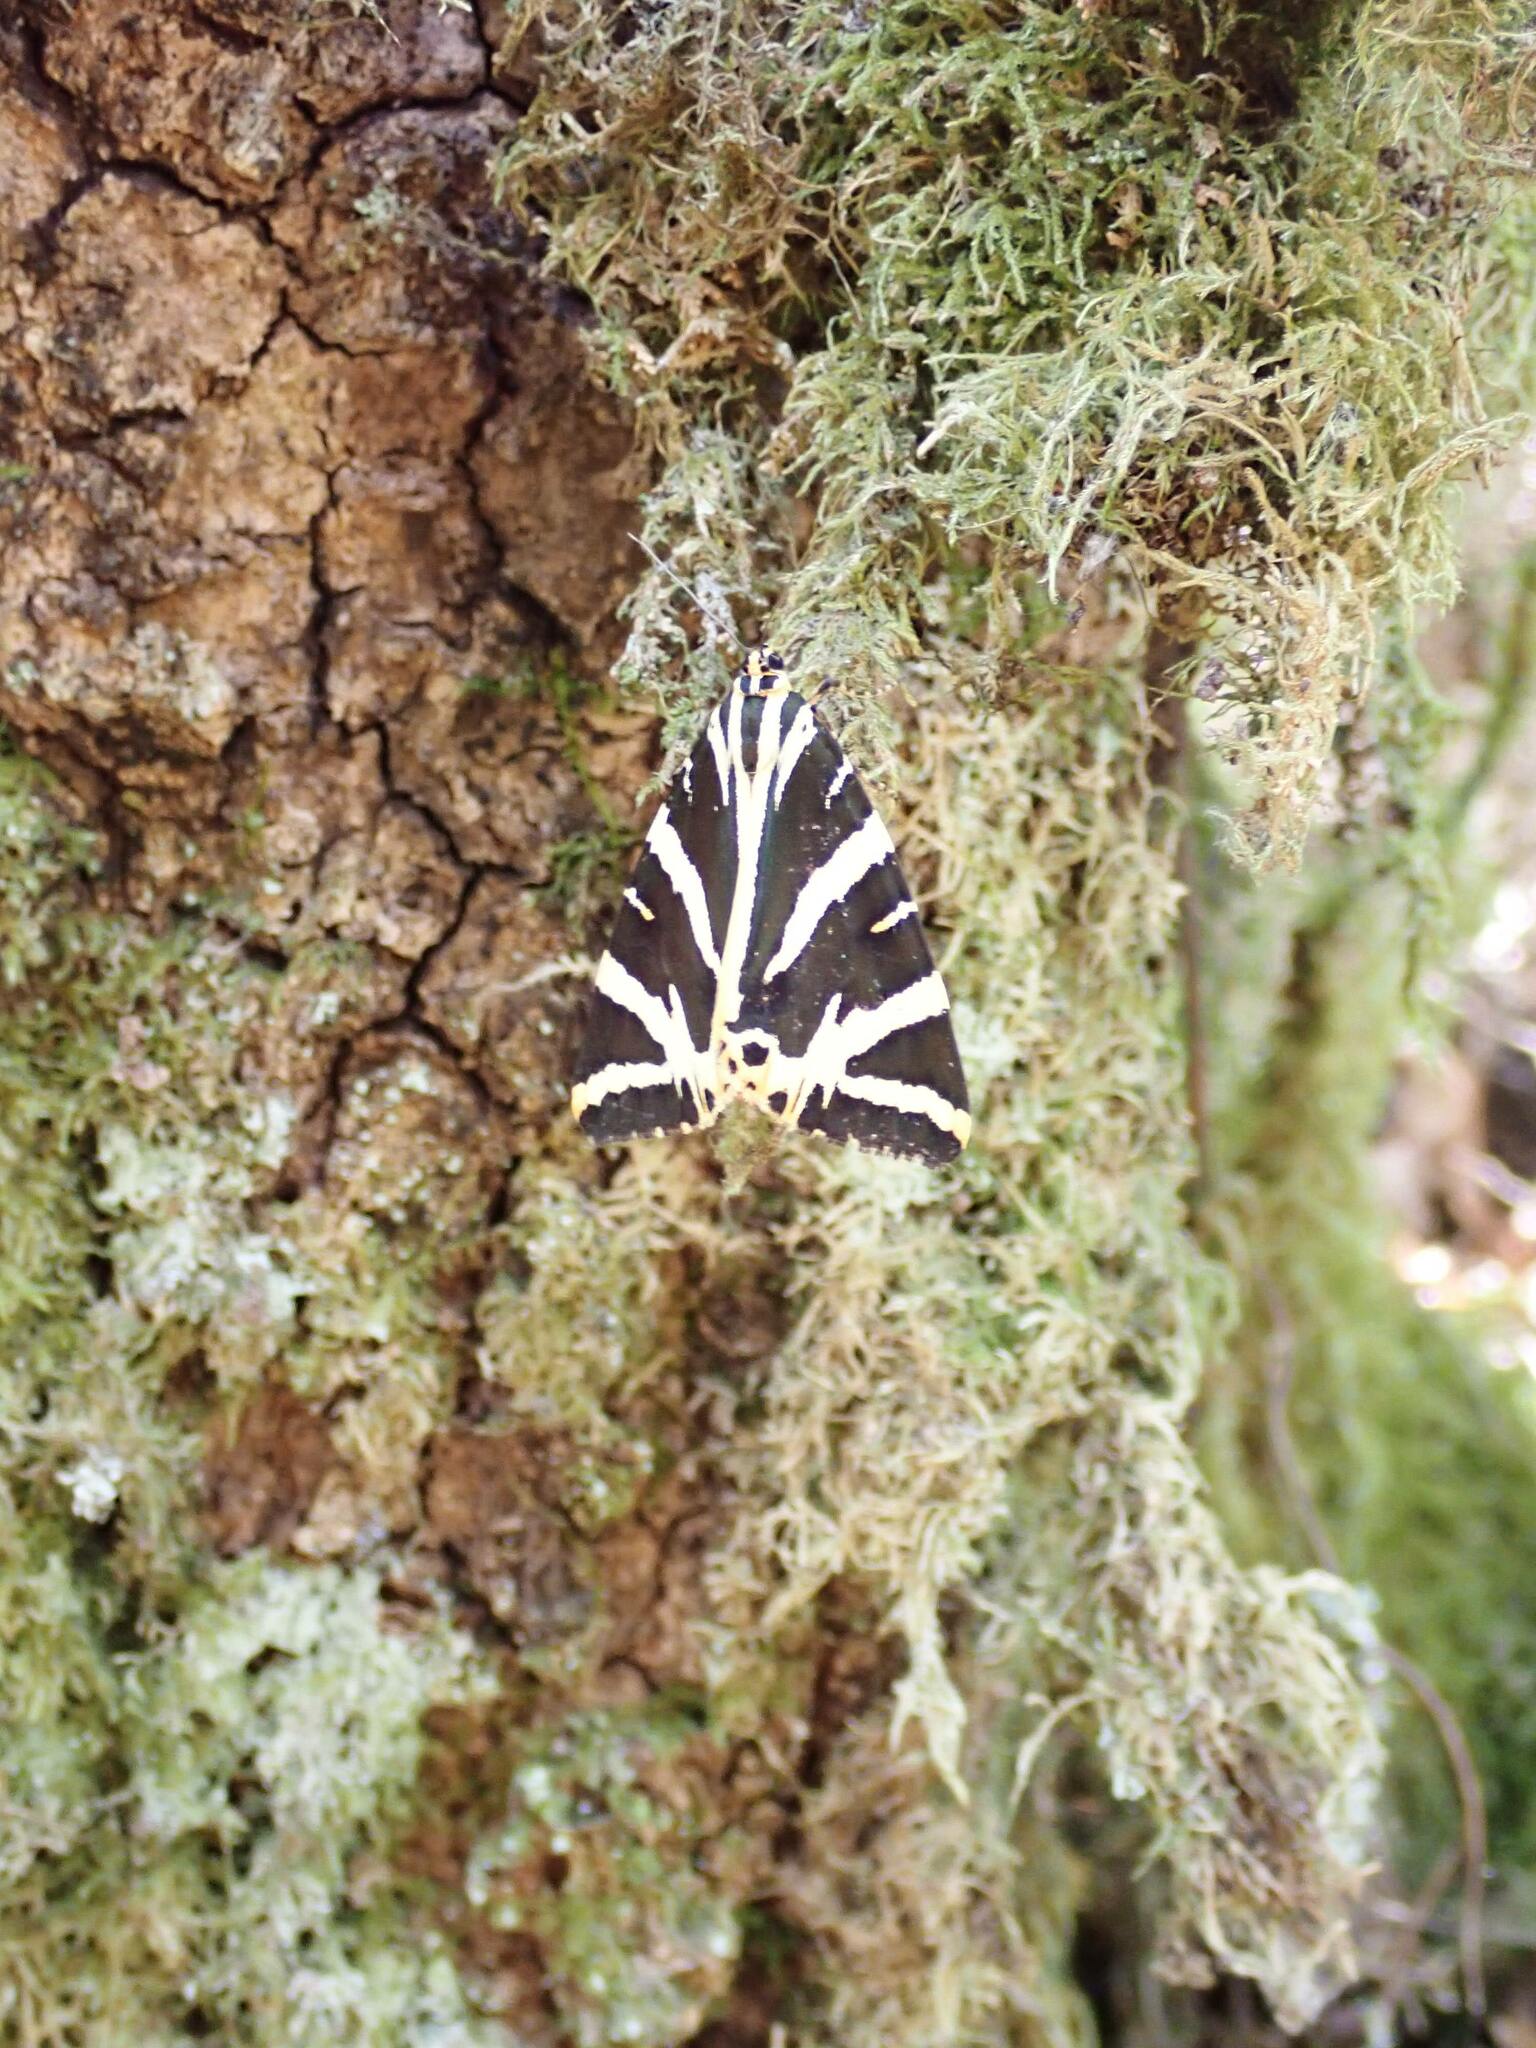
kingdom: Animalia
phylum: Arthropoda
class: Insecta
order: Lepidoptera
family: Erebidae
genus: Euplagia
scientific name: Euplagia quadripunctaria
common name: Jersey tiger
